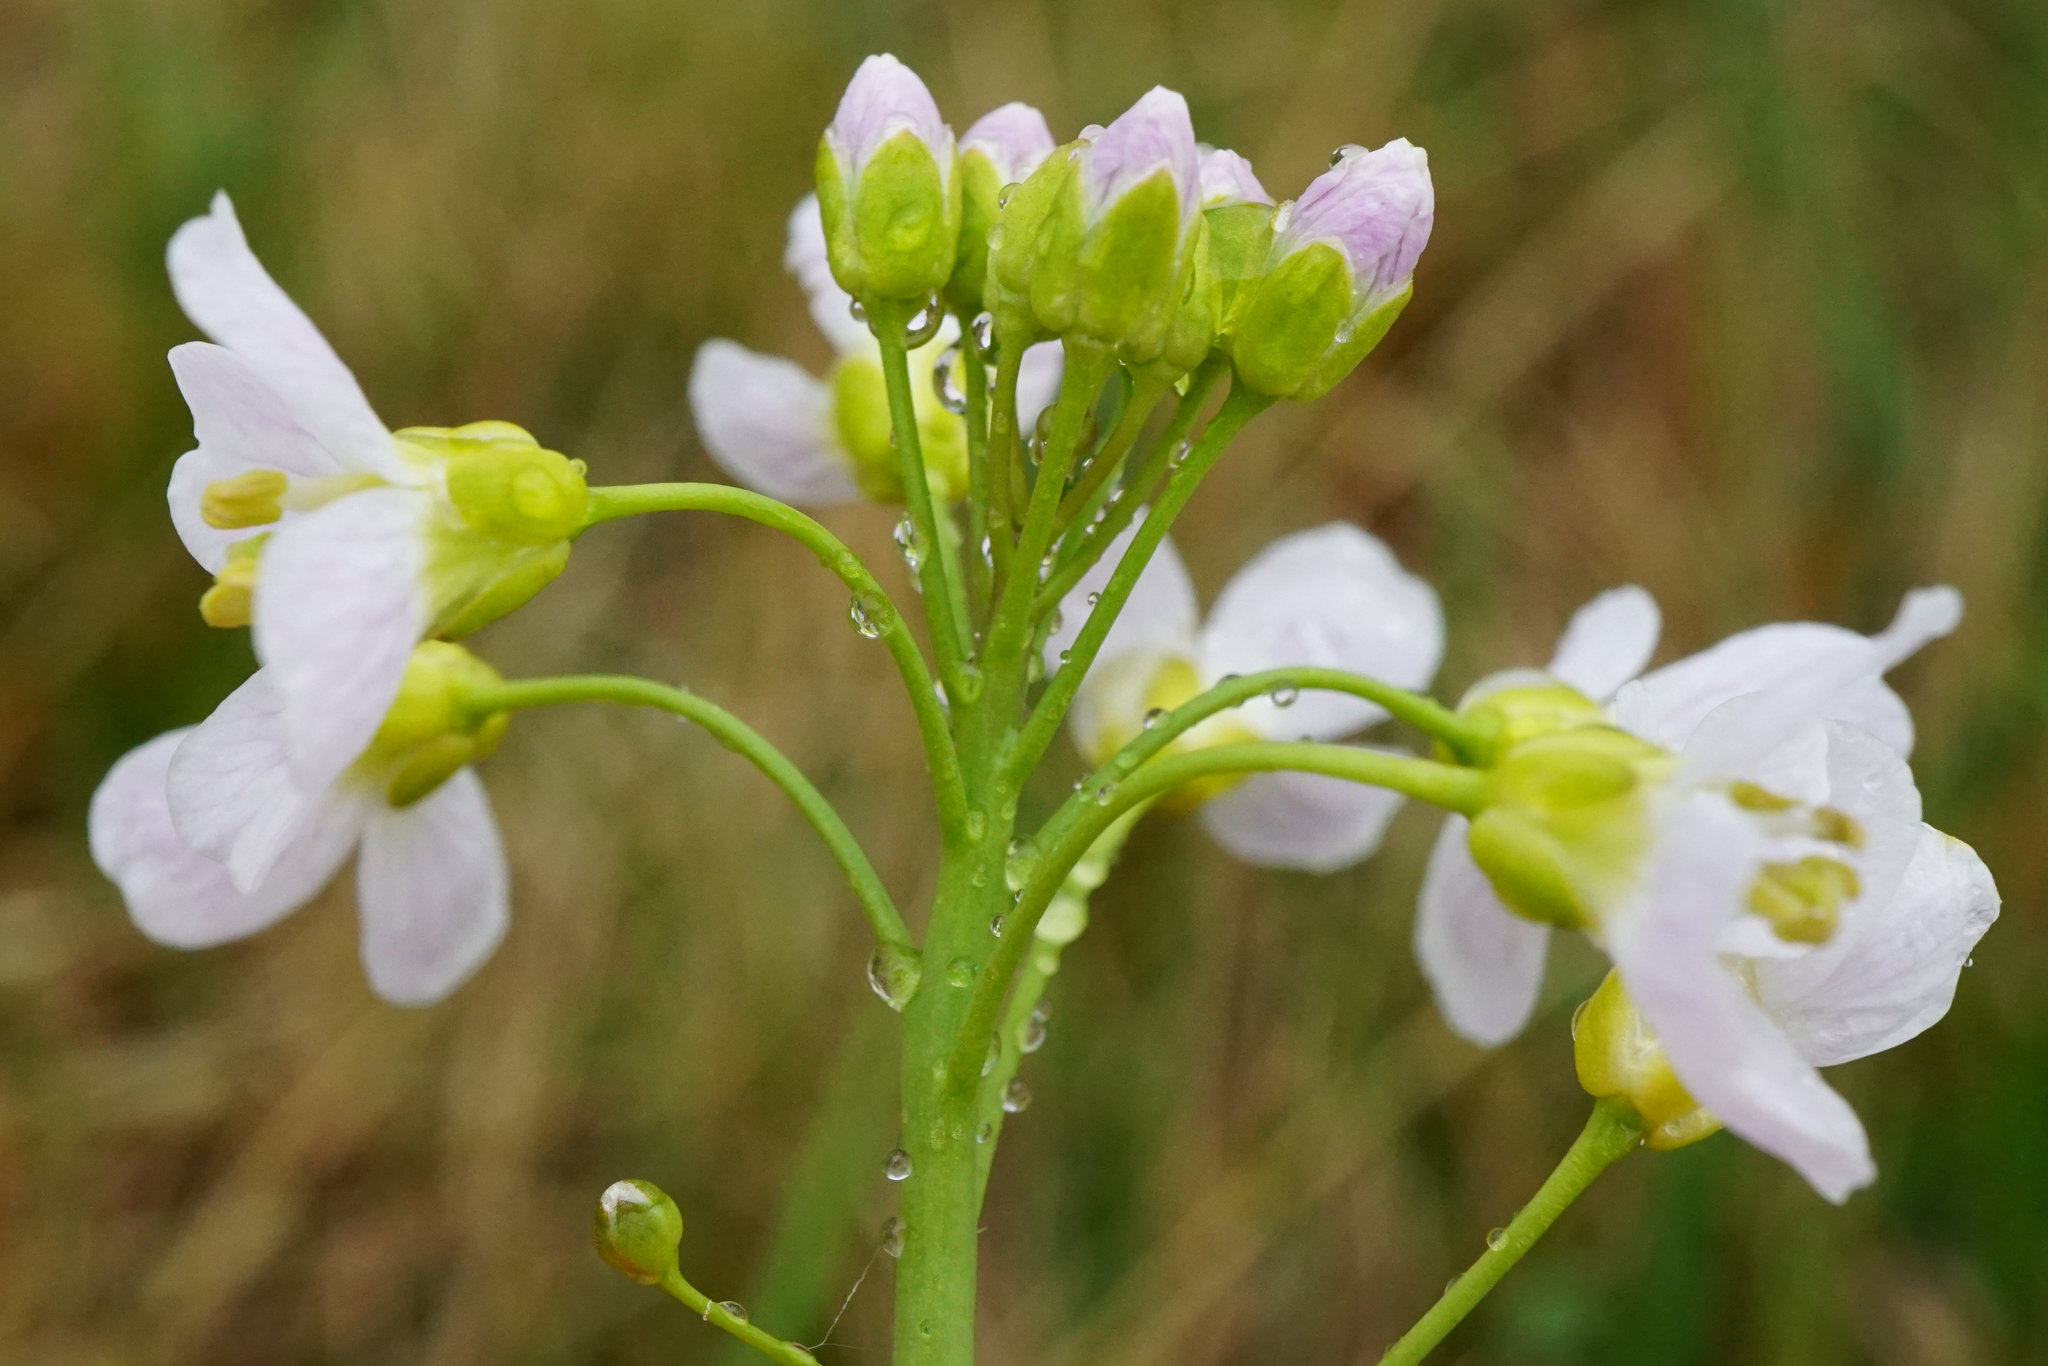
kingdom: Plantae
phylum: Tracheophyta
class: Magnoliopsida
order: Brassicales
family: Brassicaceae
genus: Cardamine
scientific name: Cardamine pratensis
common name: Cuckoo flower
